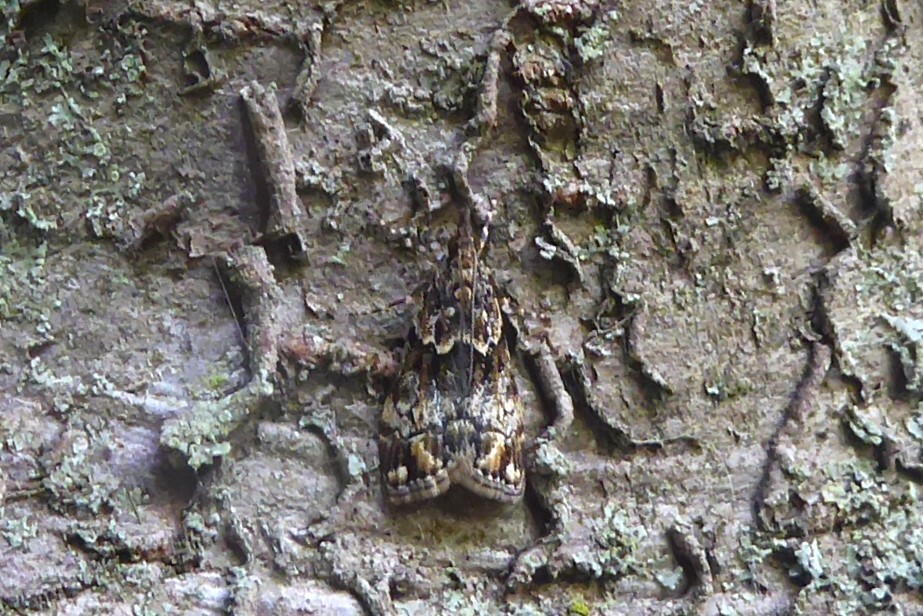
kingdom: Animalia
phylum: Arthropoda
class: Insecta
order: Lepidoptera
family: Crambidae
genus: Eudonia
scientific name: Eudonia minualis
